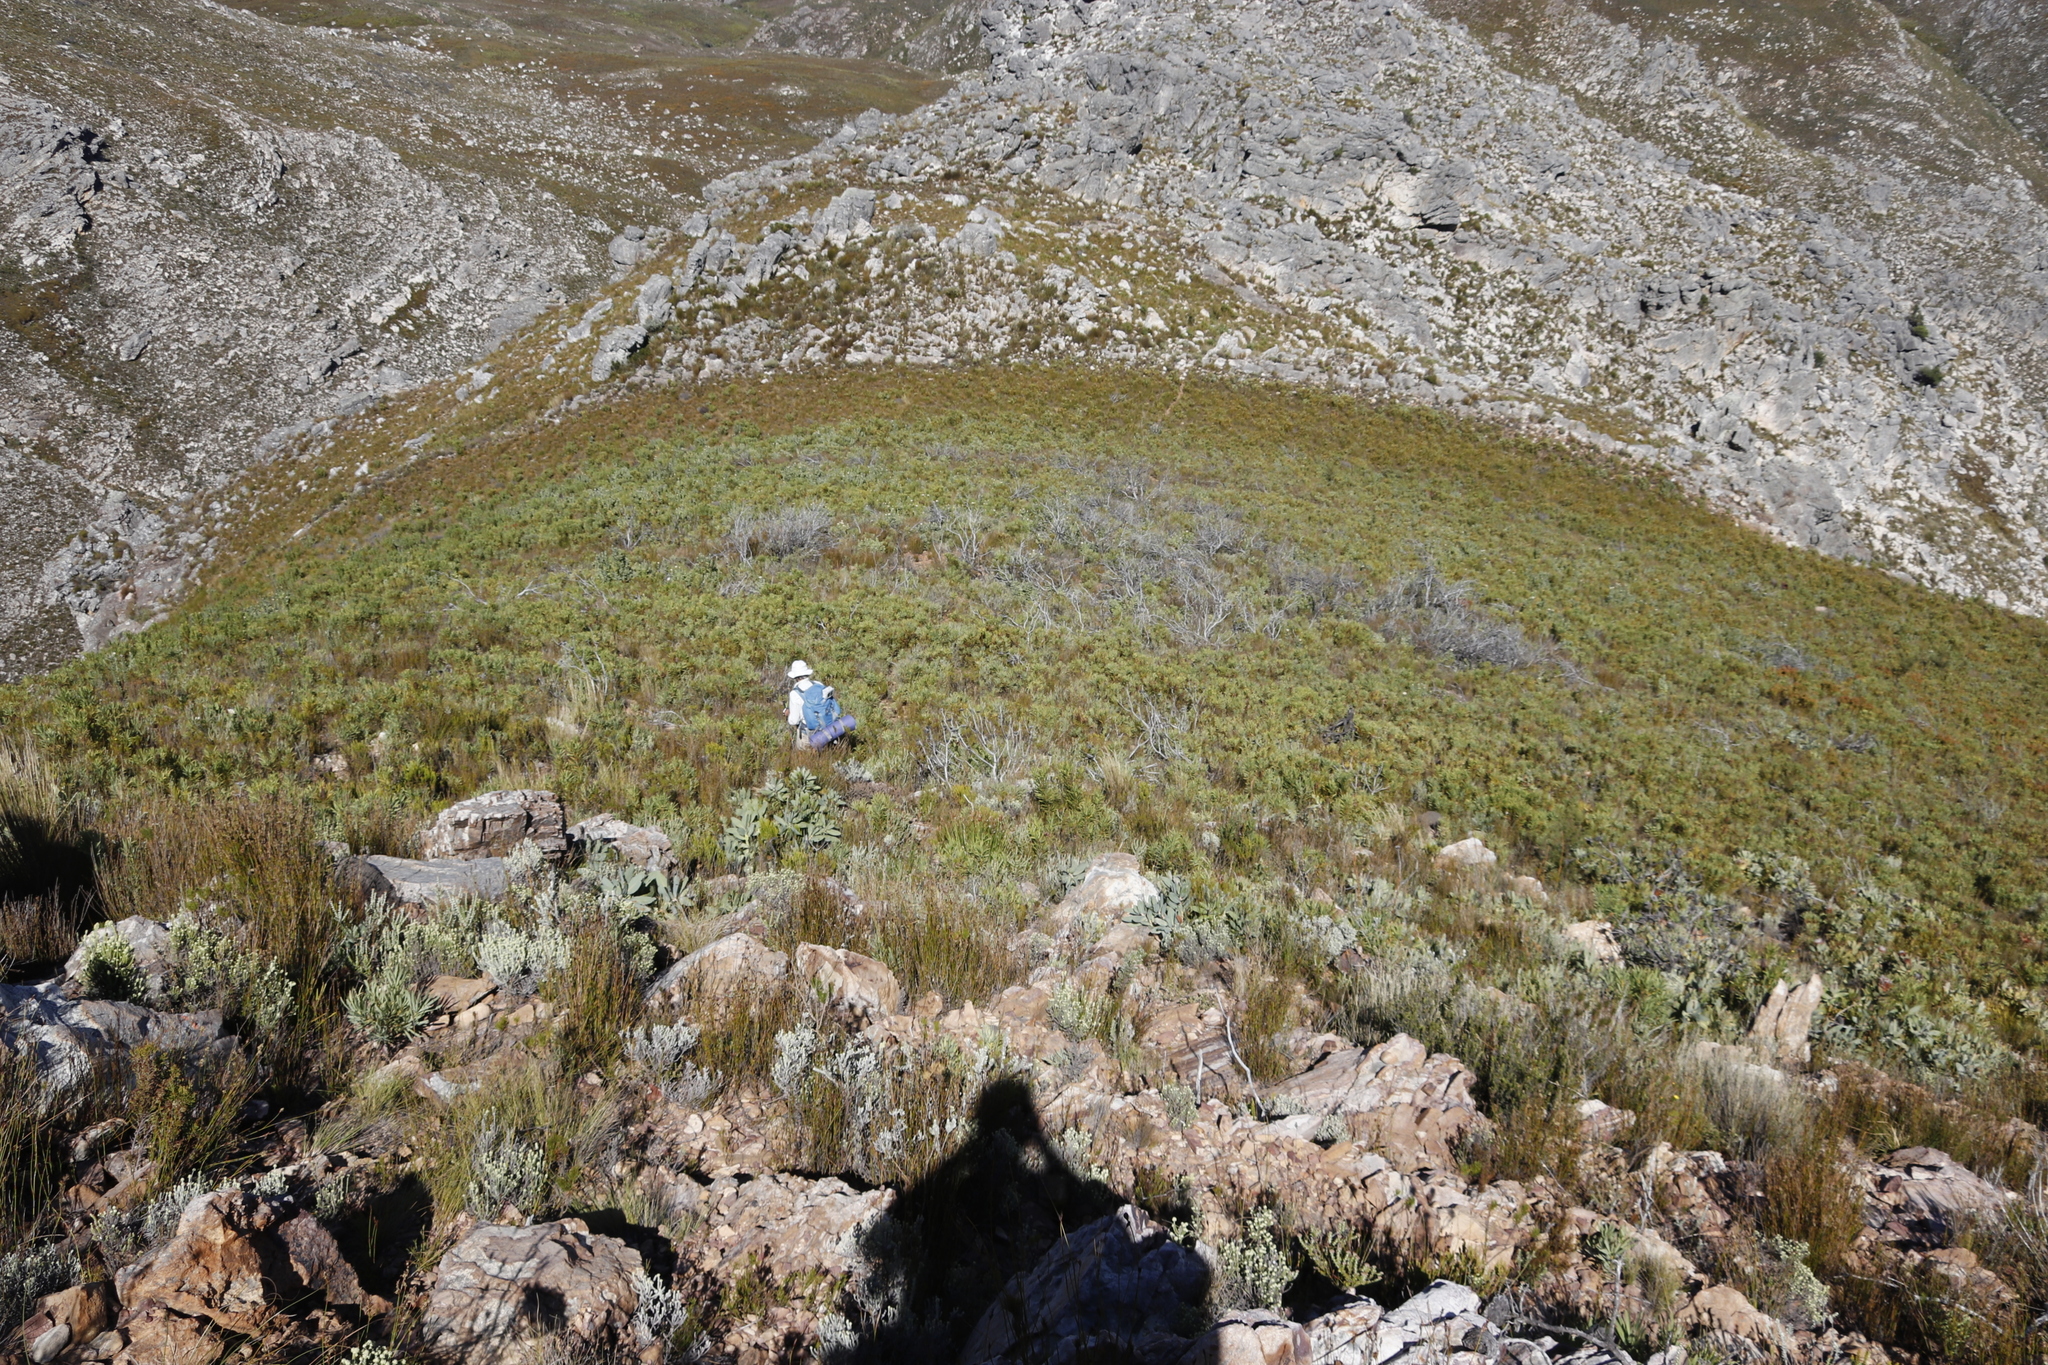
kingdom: Plantae
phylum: Tracheophyta
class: Magnoliopsida
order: Proteales
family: Proteaceae
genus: Protea
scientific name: Protea magnifica
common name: Bearded sugarbush
